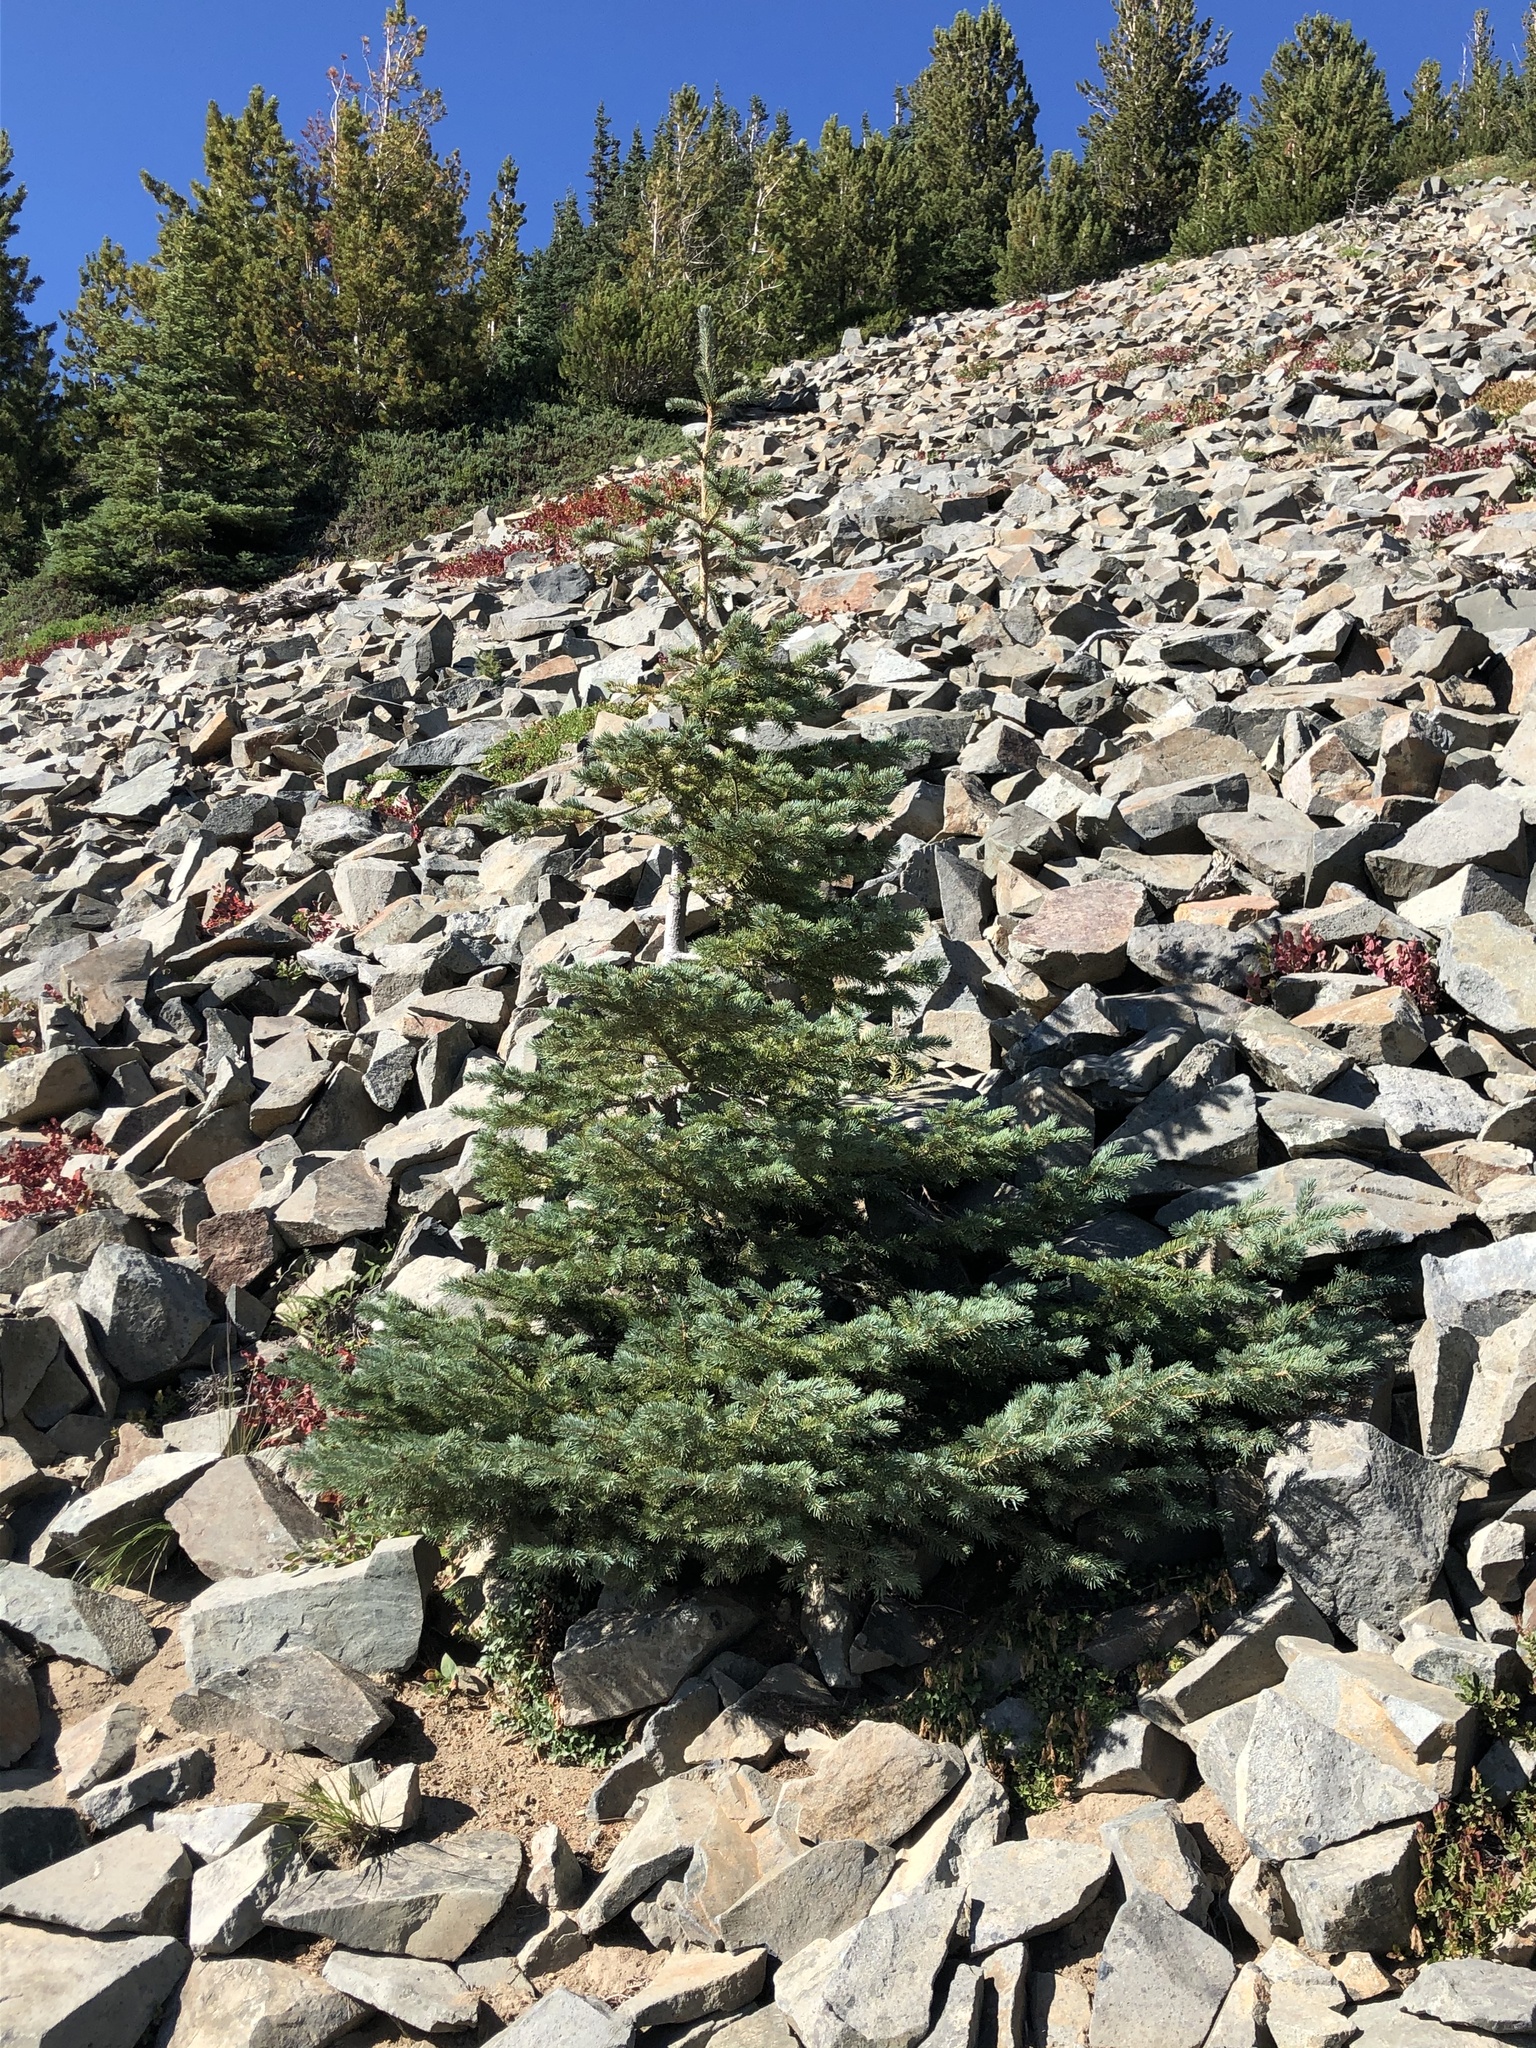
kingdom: Plantae
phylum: Tracheophyta
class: Pinopsida
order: Pinales
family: Pinaceae
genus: Pinus
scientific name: Pinus albicaulis
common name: Whitebark pine
